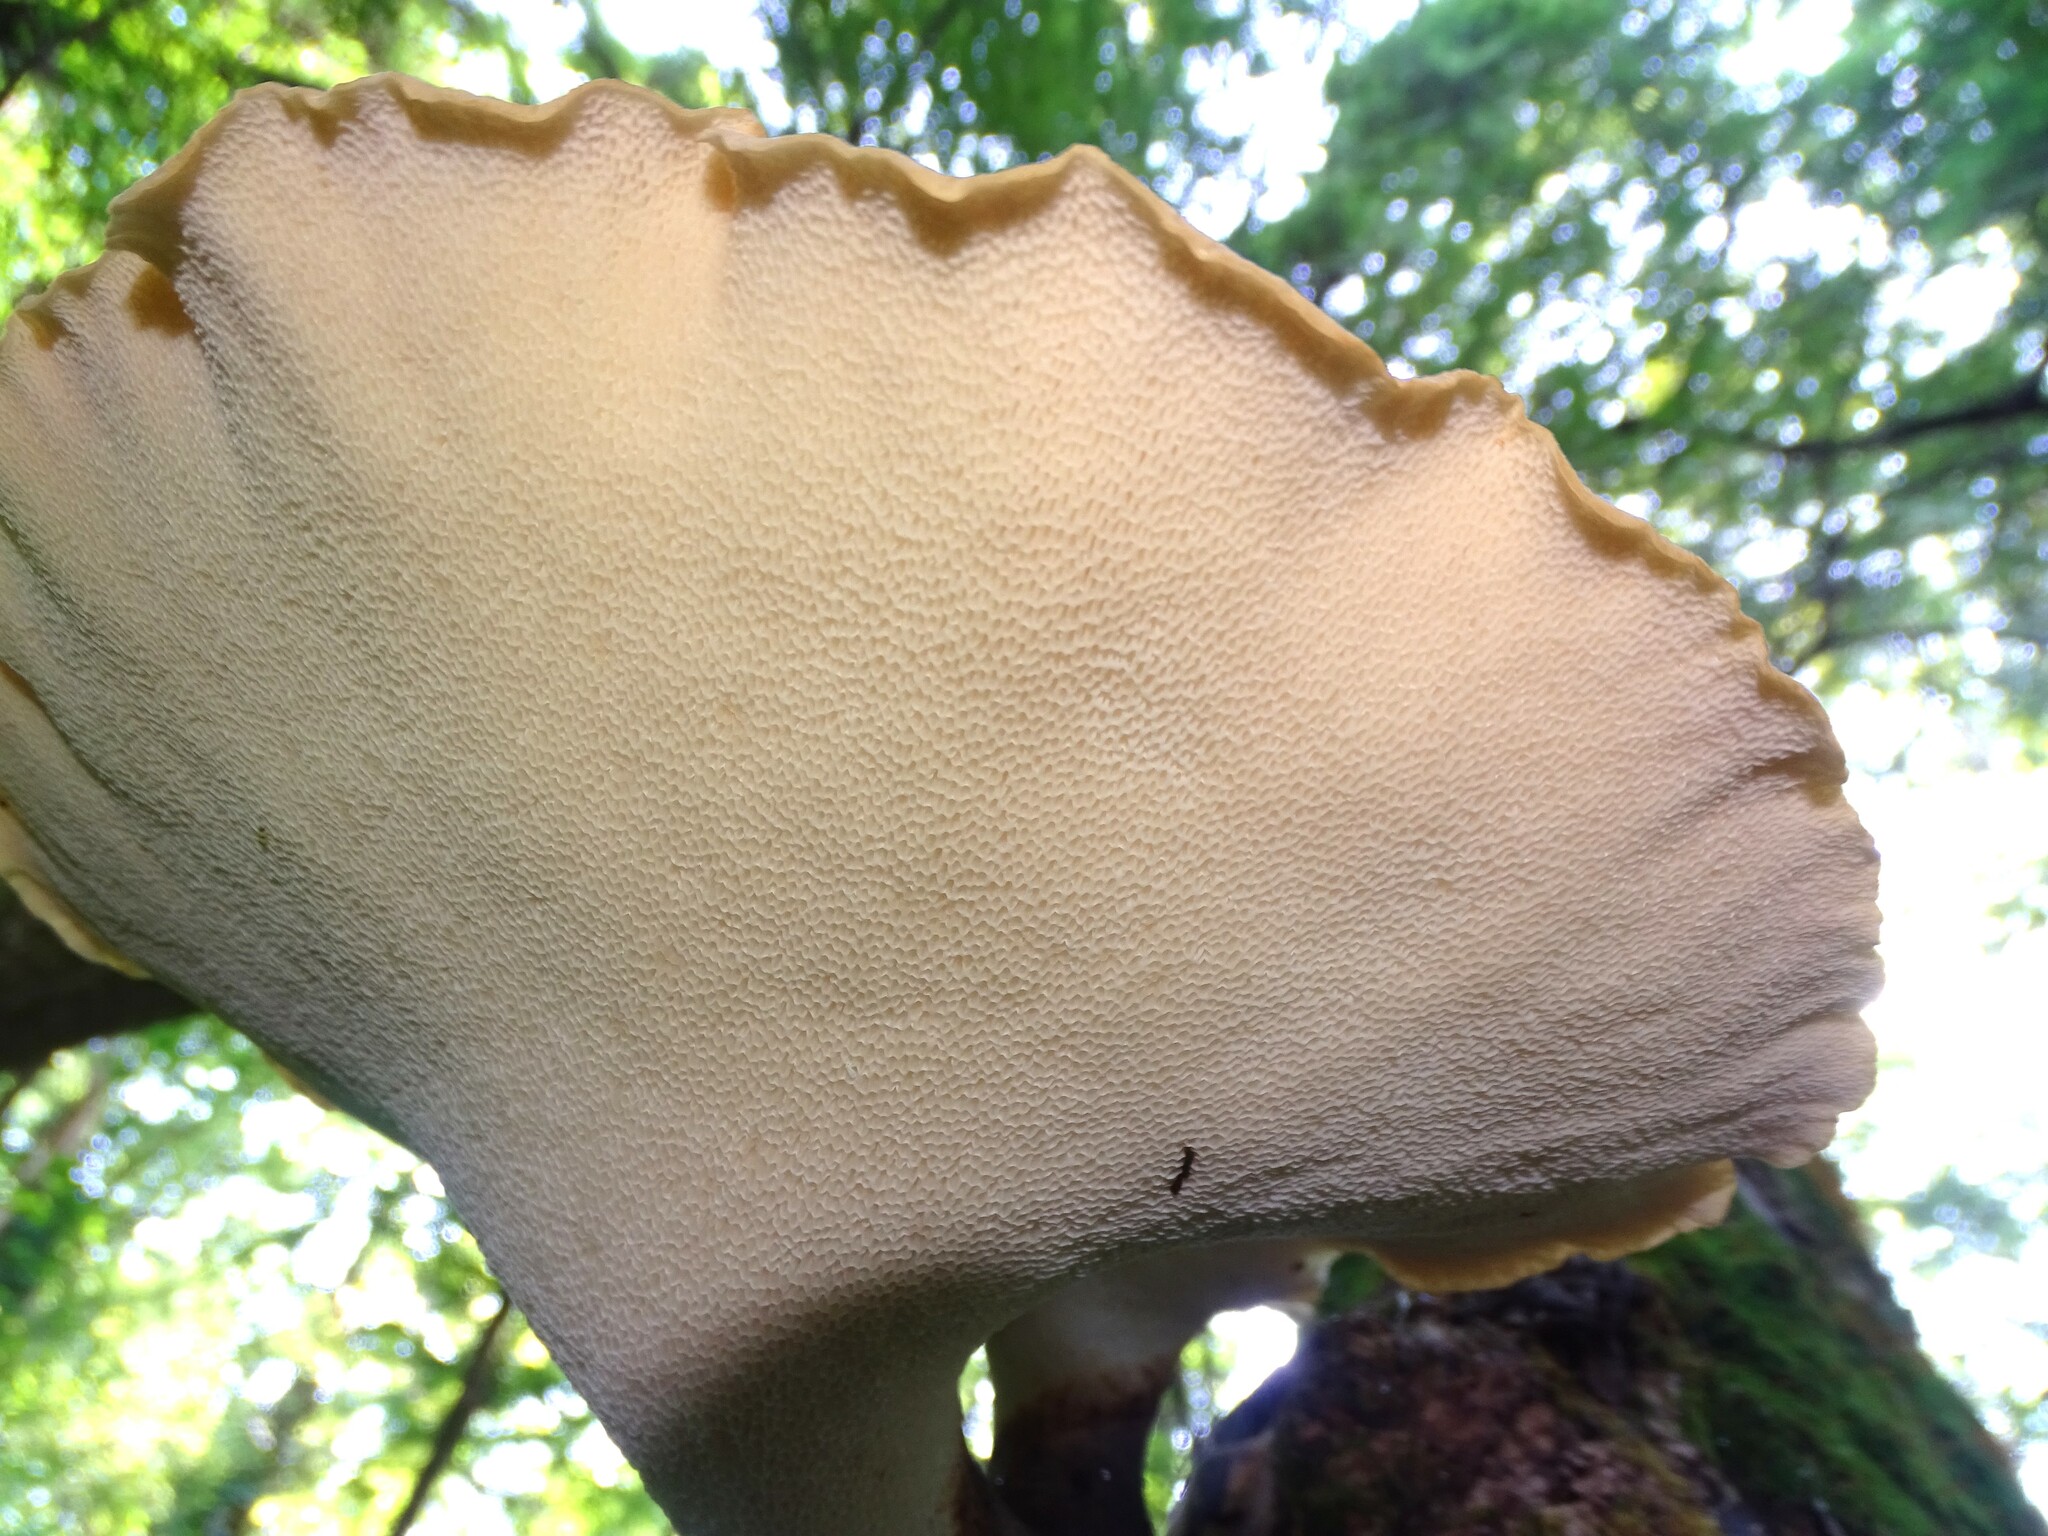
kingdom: Fungi
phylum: Basidiomycota
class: Agaricomycetes
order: Polyporales
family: Polyporaceae
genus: Cerioporus
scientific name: Cerioporus squamosus
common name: Dryad's saddle
